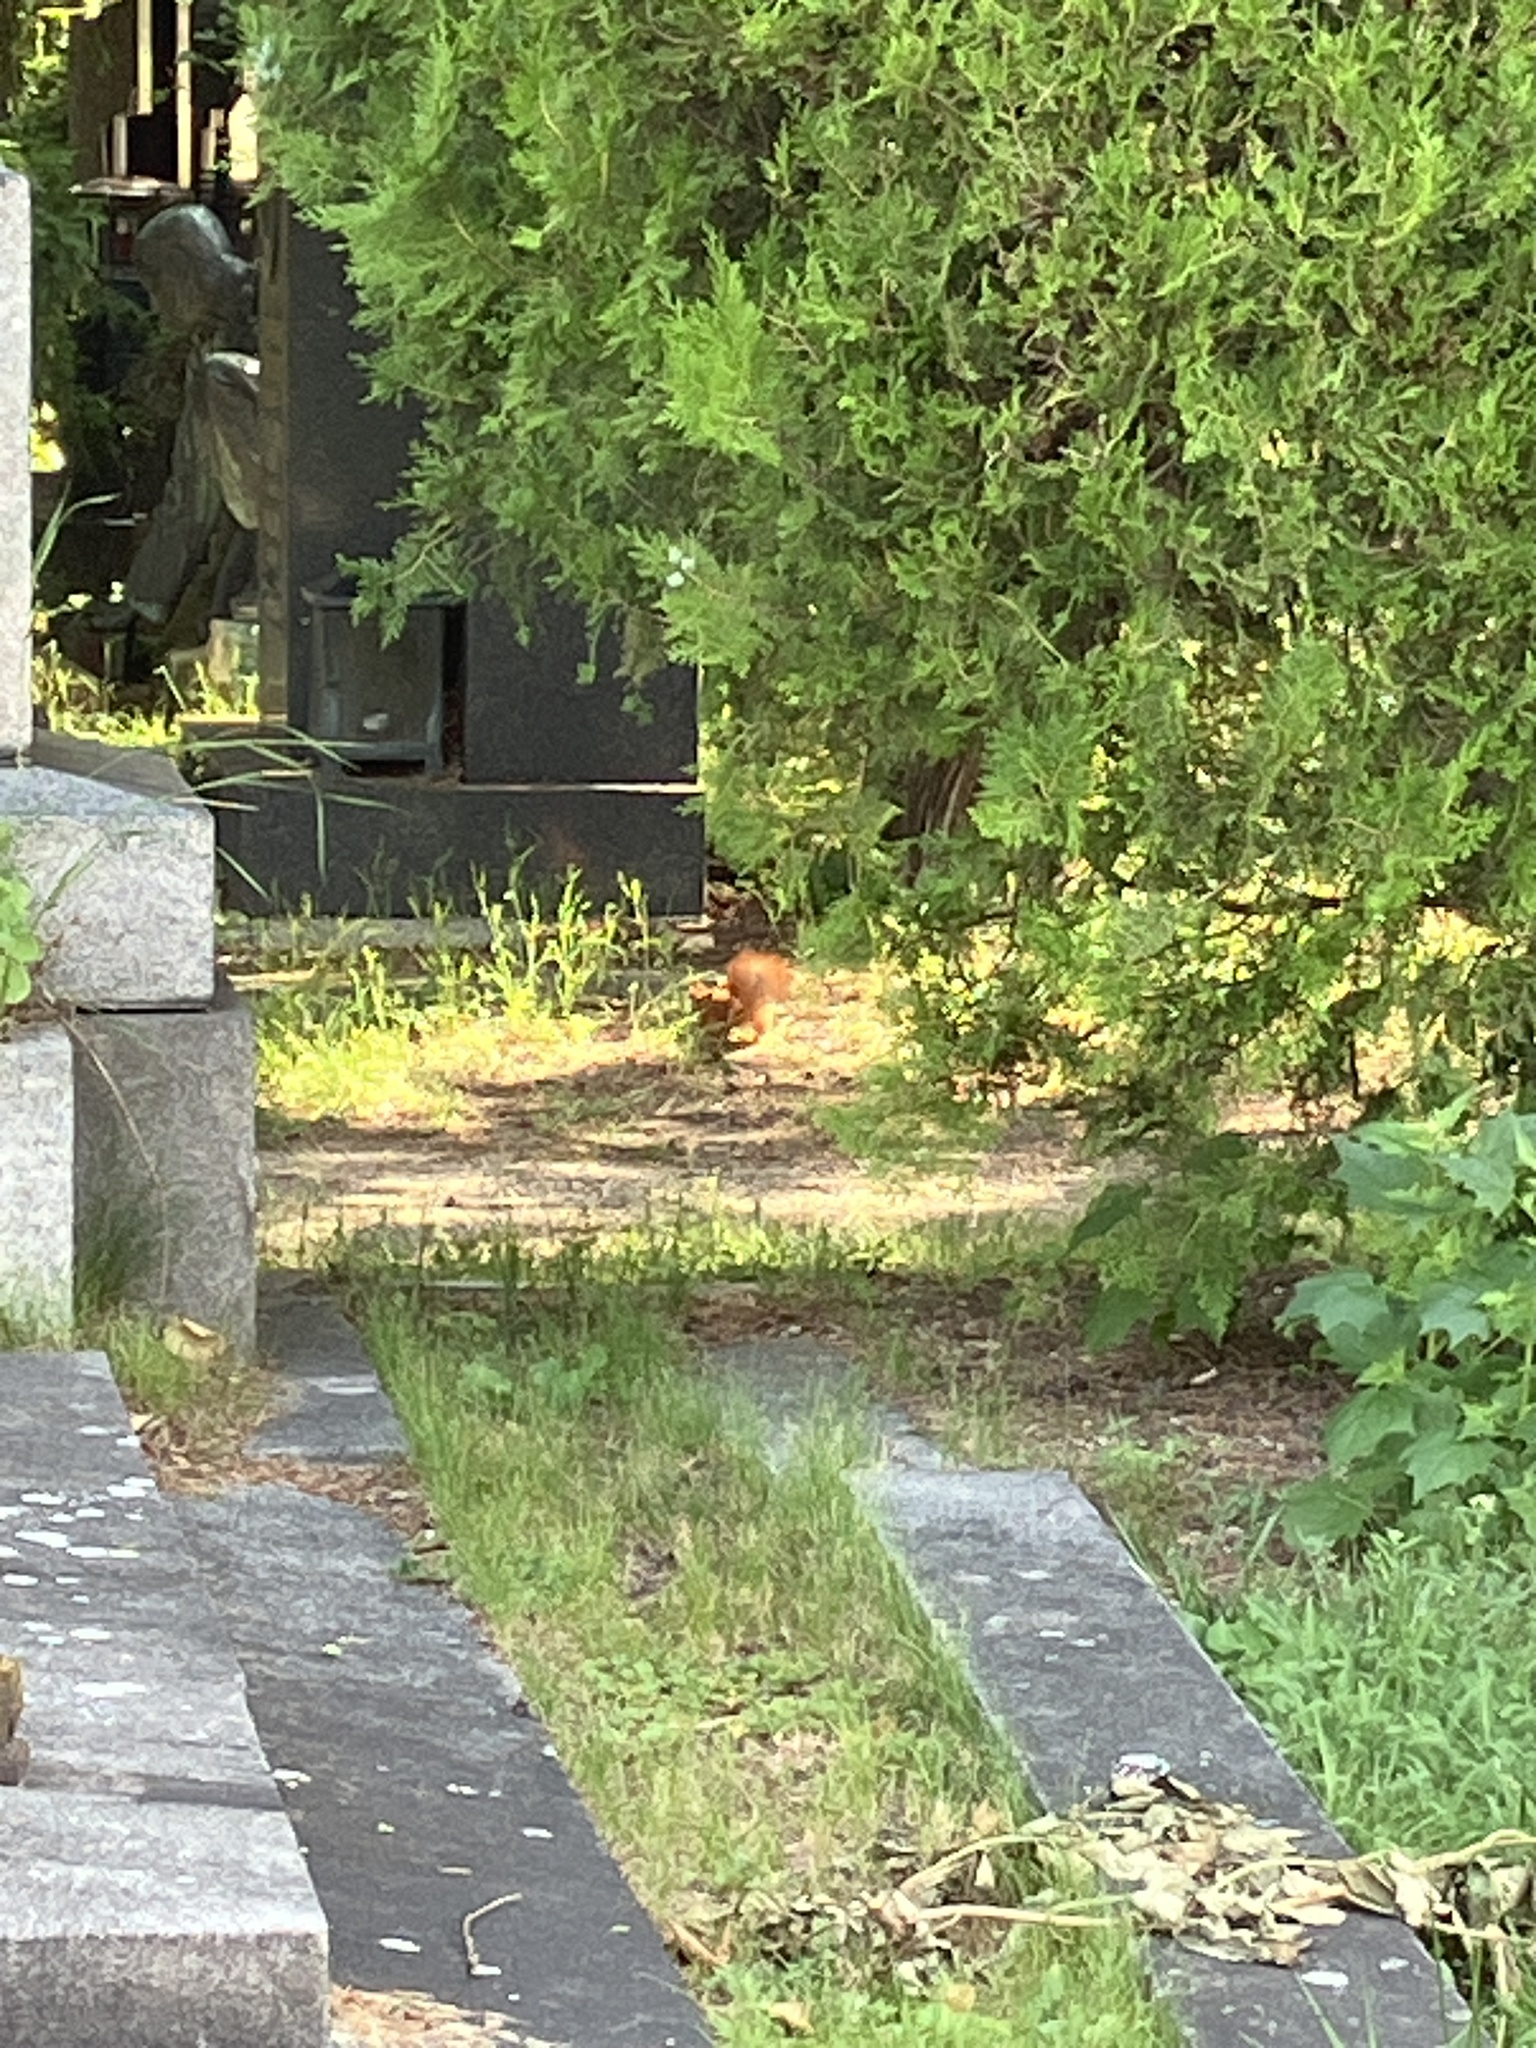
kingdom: Animalia
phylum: Chordata
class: Mammalia
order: Rodentia
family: Sciuridae
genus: Sciurus
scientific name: Sciurus vulgaris
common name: Eurasian red squirrel
